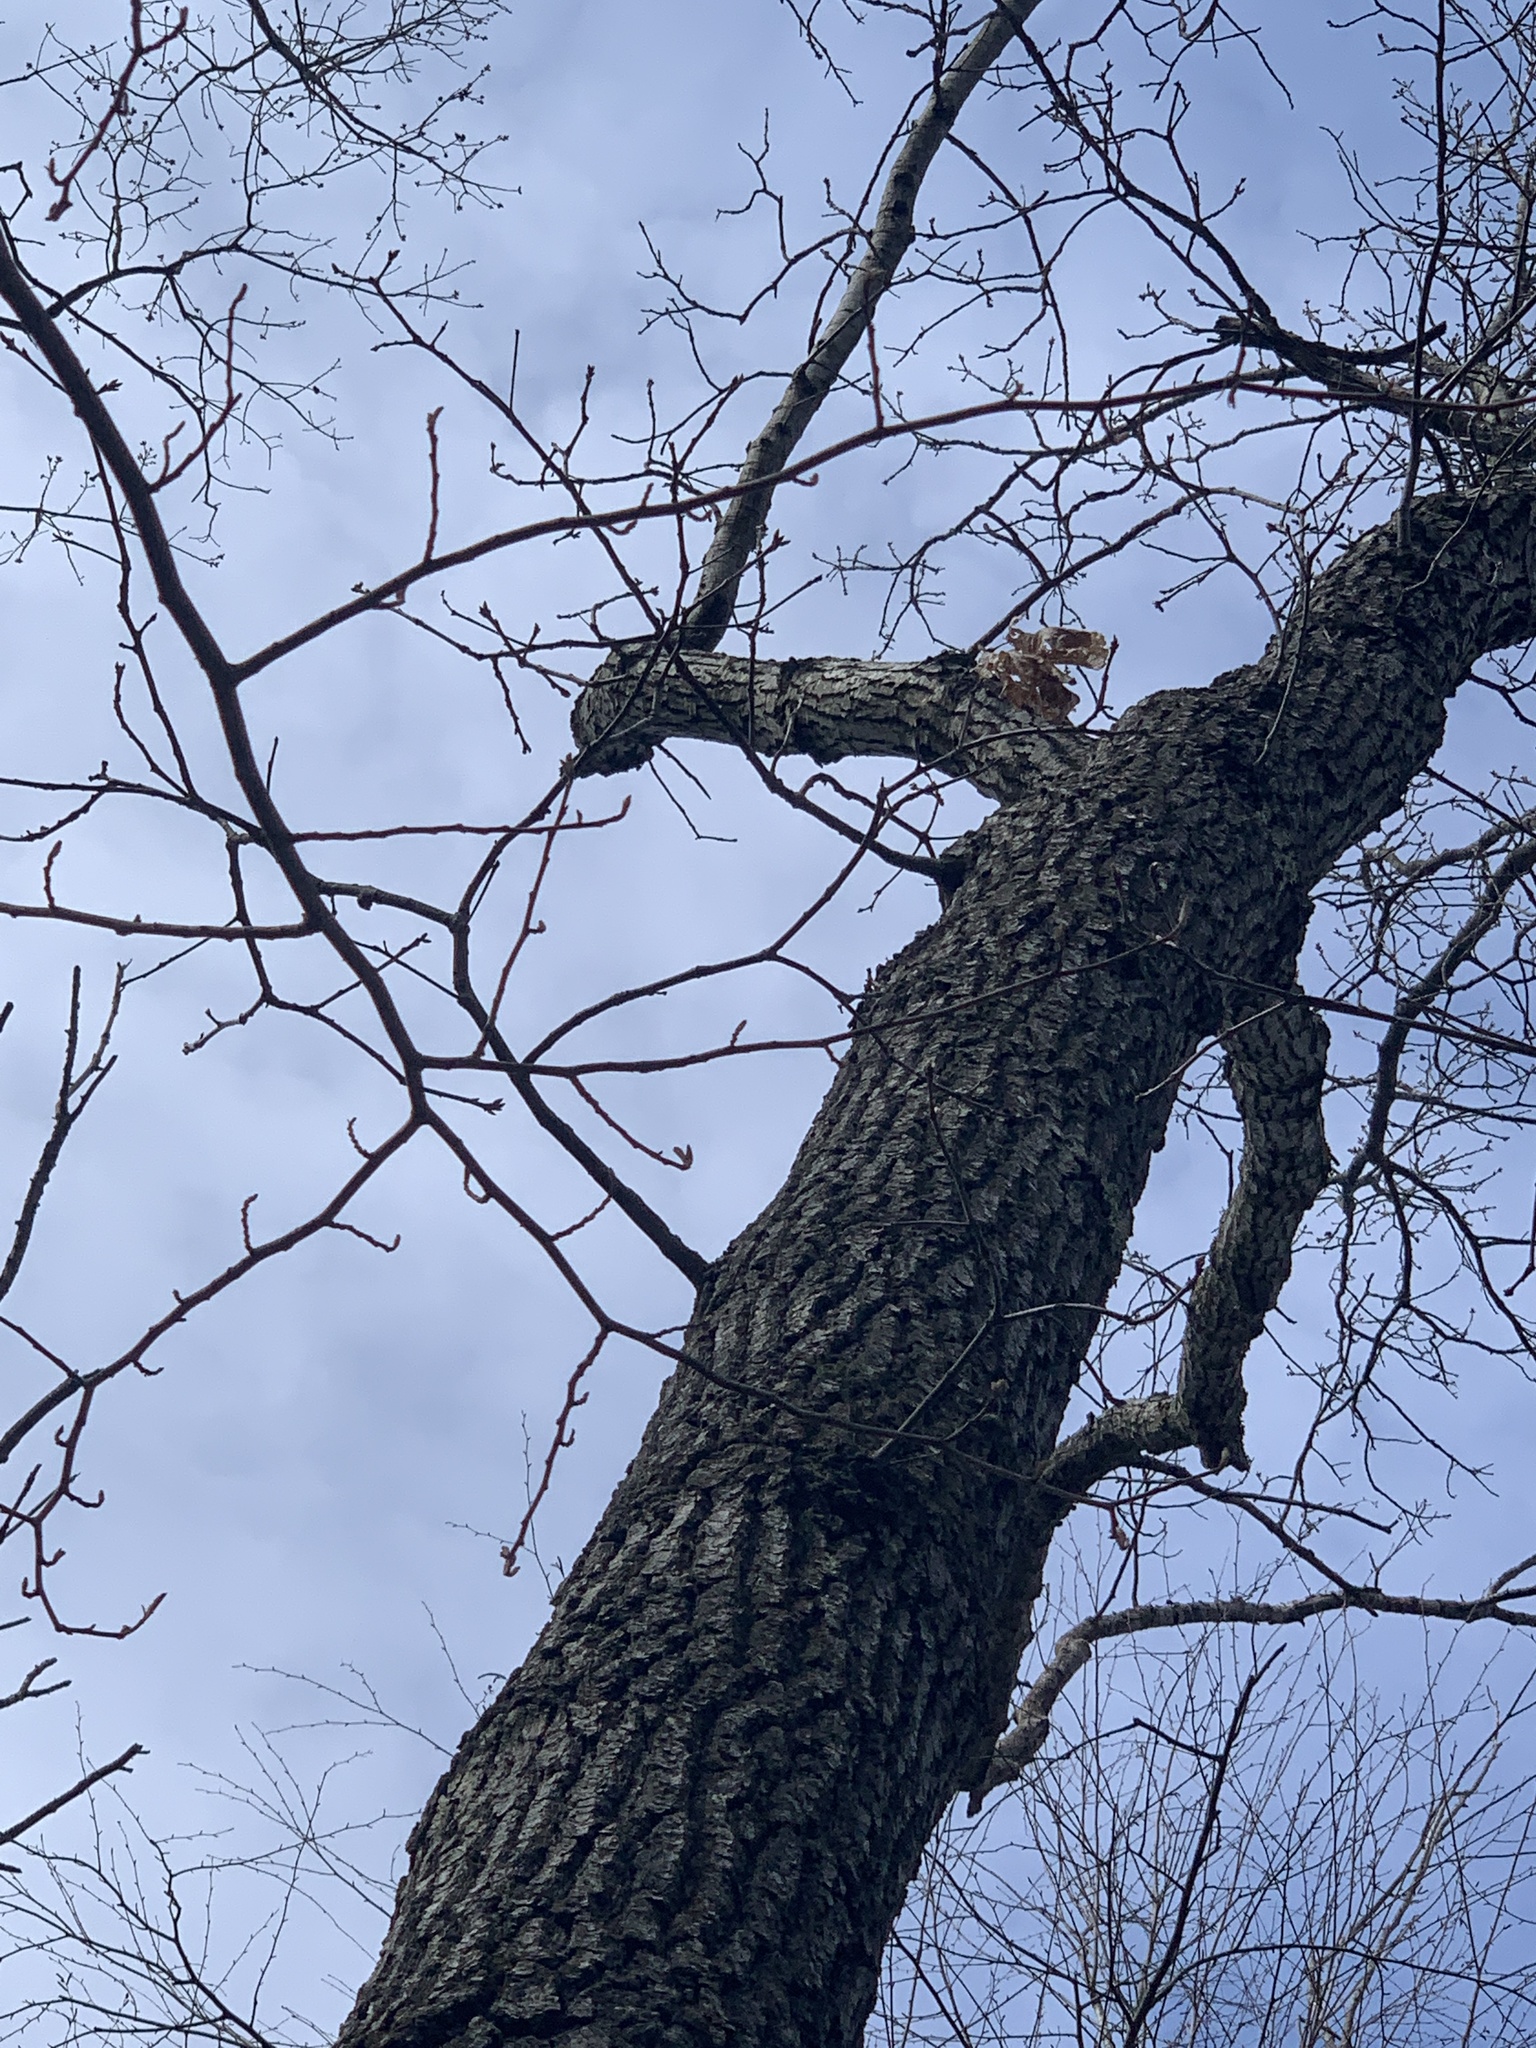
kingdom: Plantae
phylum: Tracheophyta
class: Magnoliopsida
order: Fagales
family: Fagaceae
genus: Quercus
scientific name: Quercus velutina
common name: Black oak
